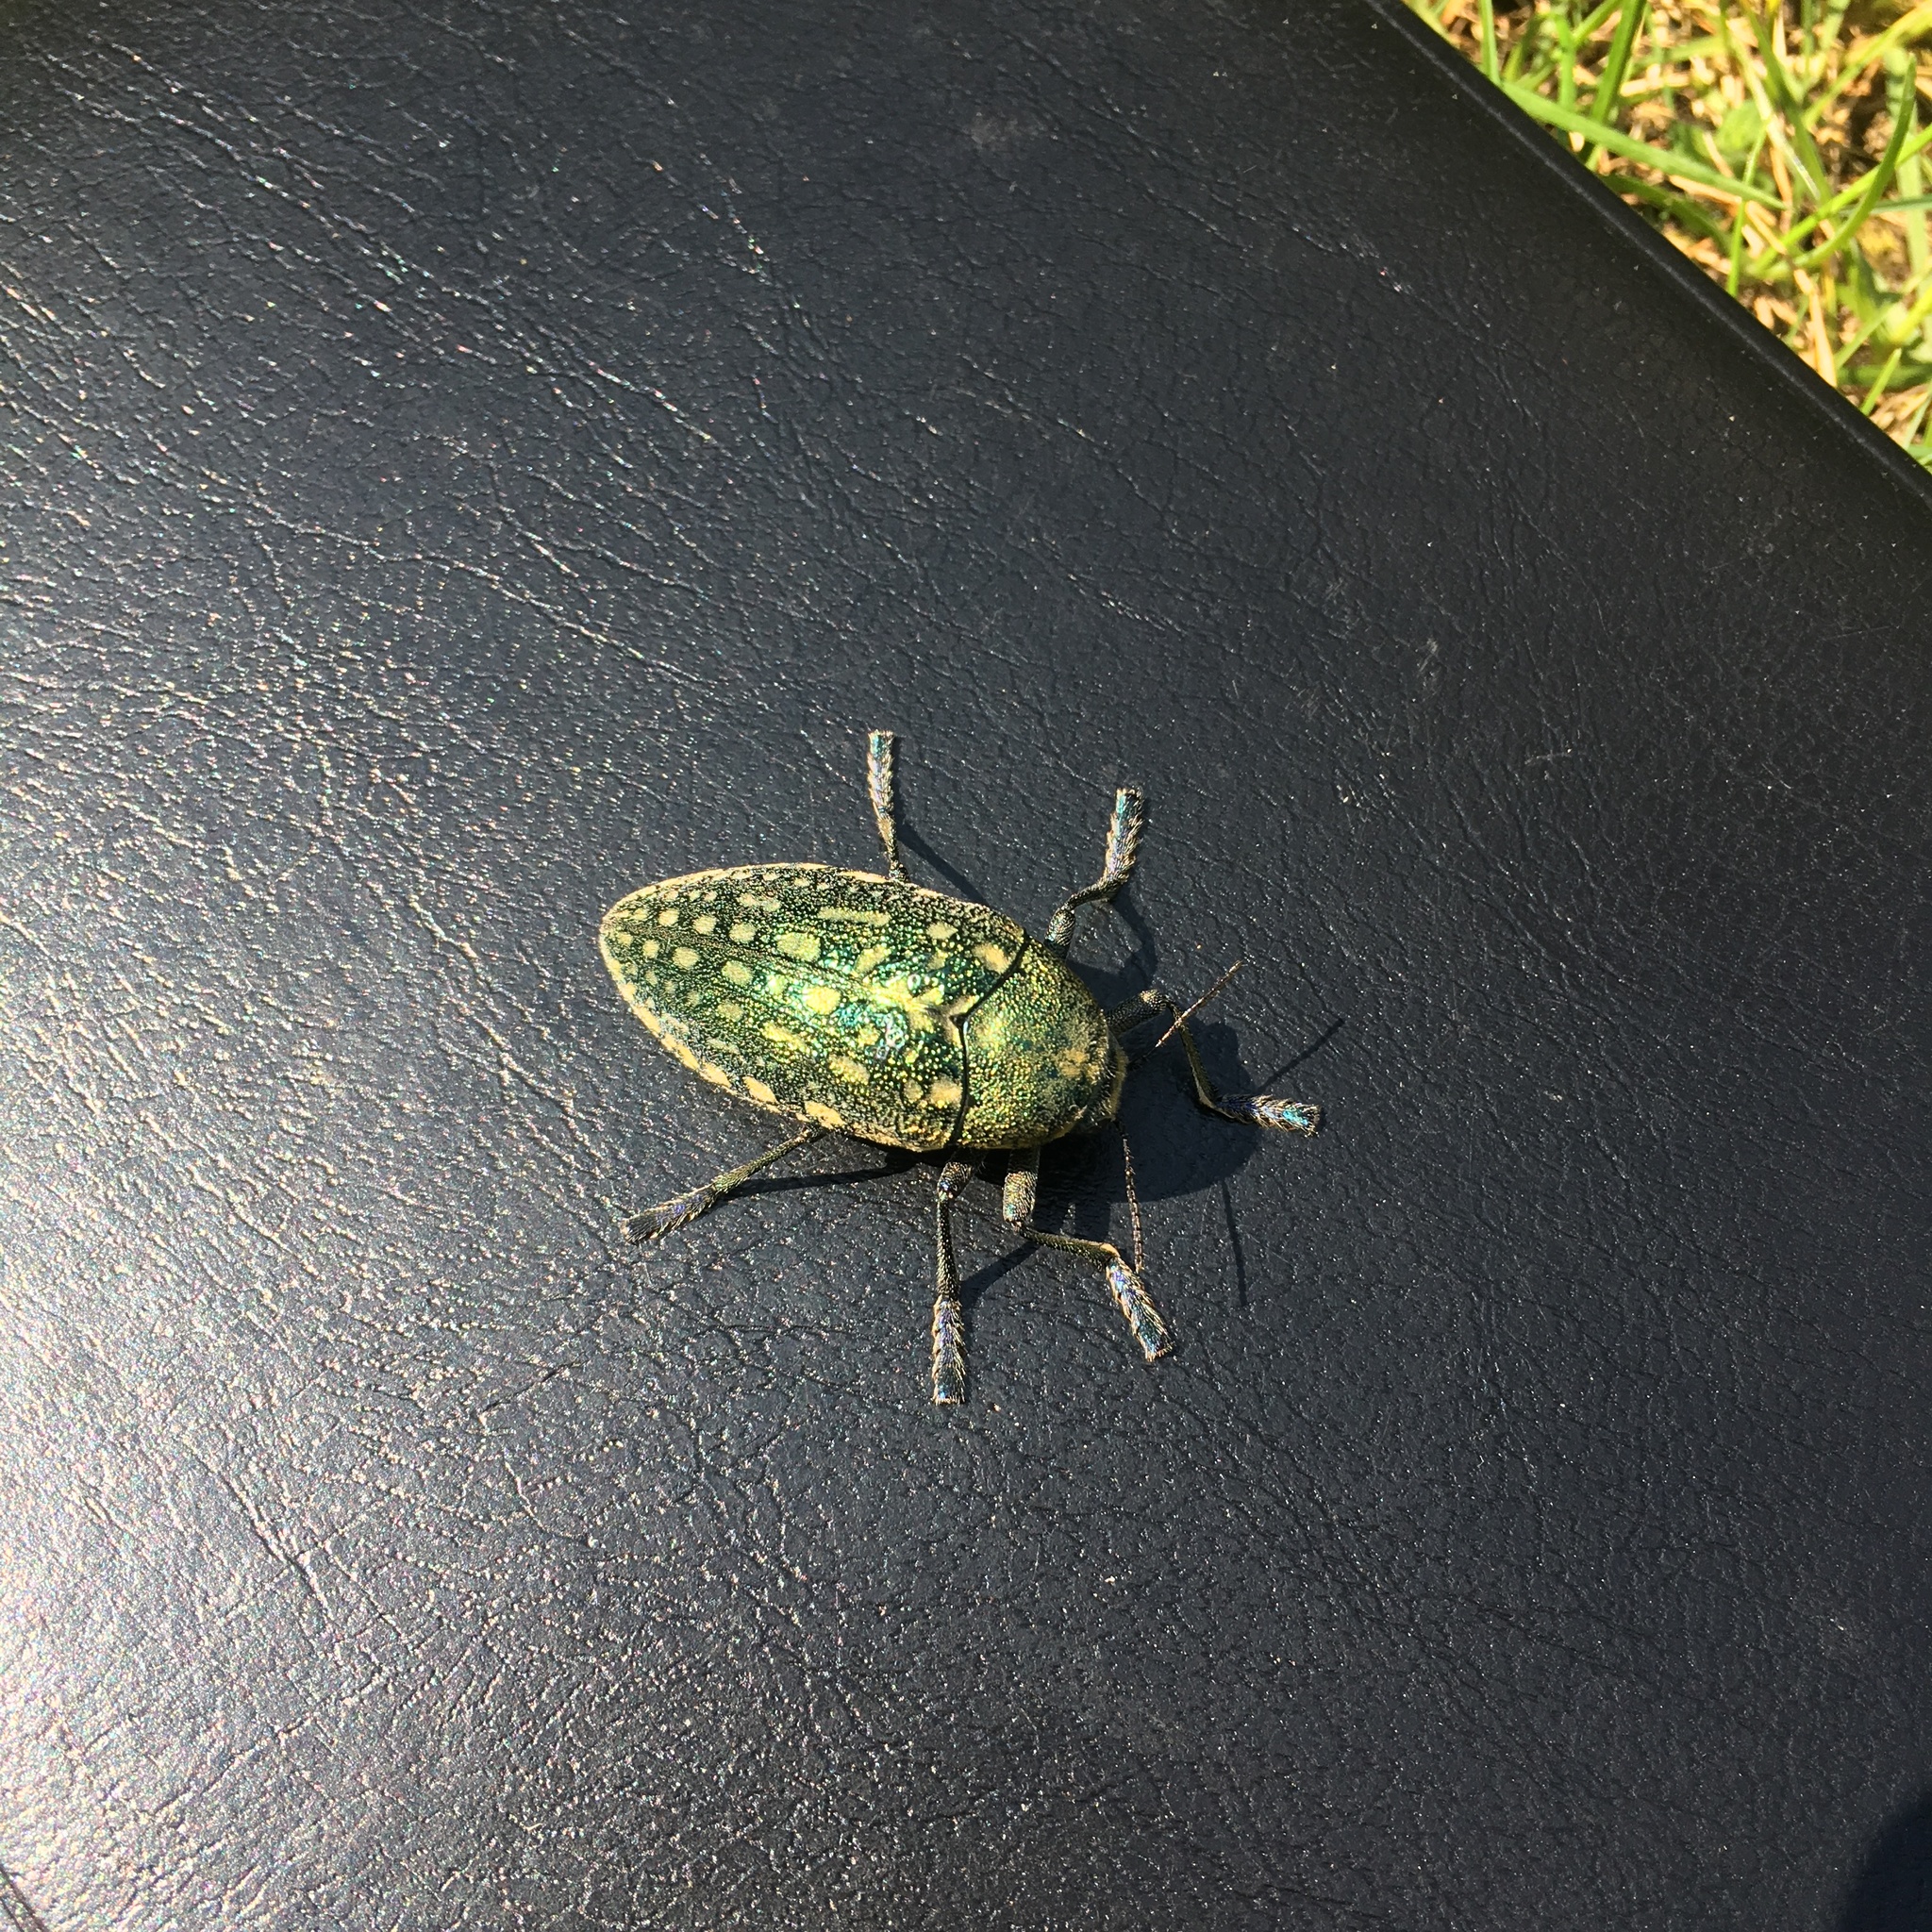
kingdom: Animalia
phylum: Arthropoda
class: Insecta
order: Coleoptera
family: Buprestidae
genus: Julodis
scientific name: Julodis aequinoctialis
